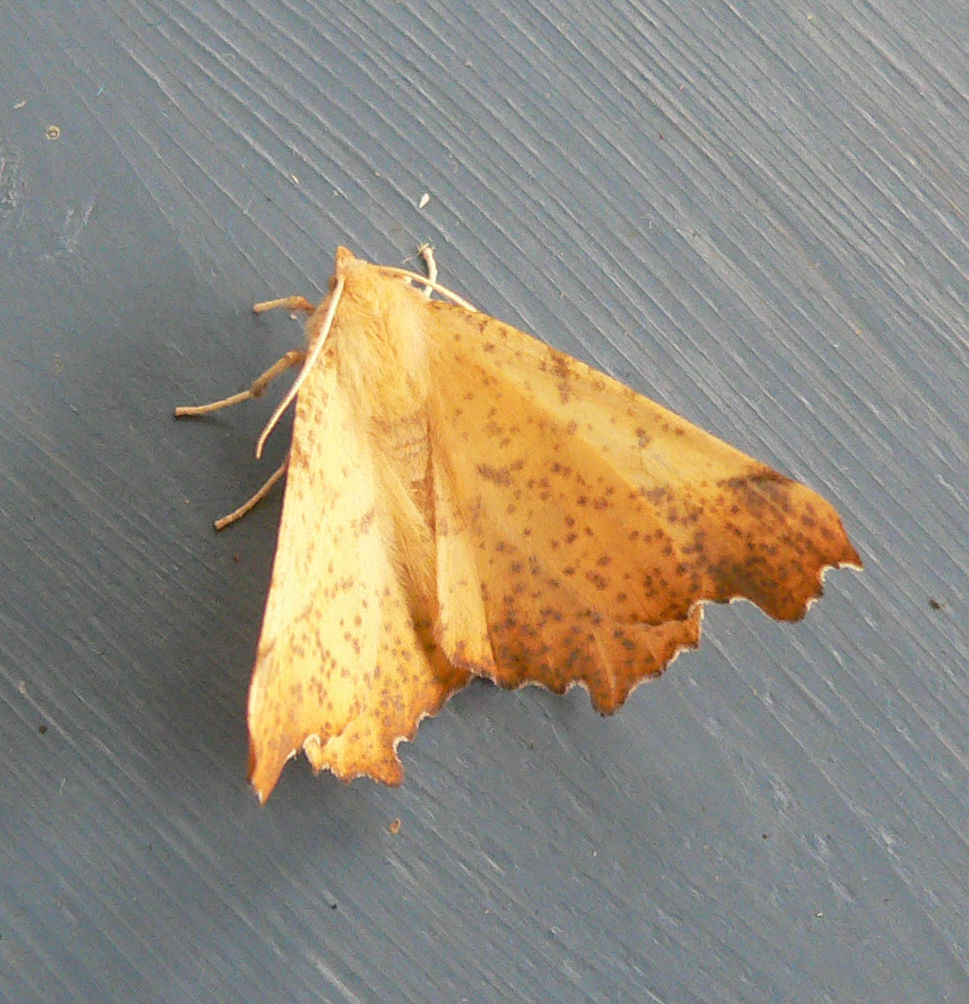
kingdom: Animalia
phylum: Arthropoda
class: Insecta
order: Lepidoptera
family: Geometridae
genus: Ennomos
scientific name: Ennomos magnaria
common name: Maple spanworm
